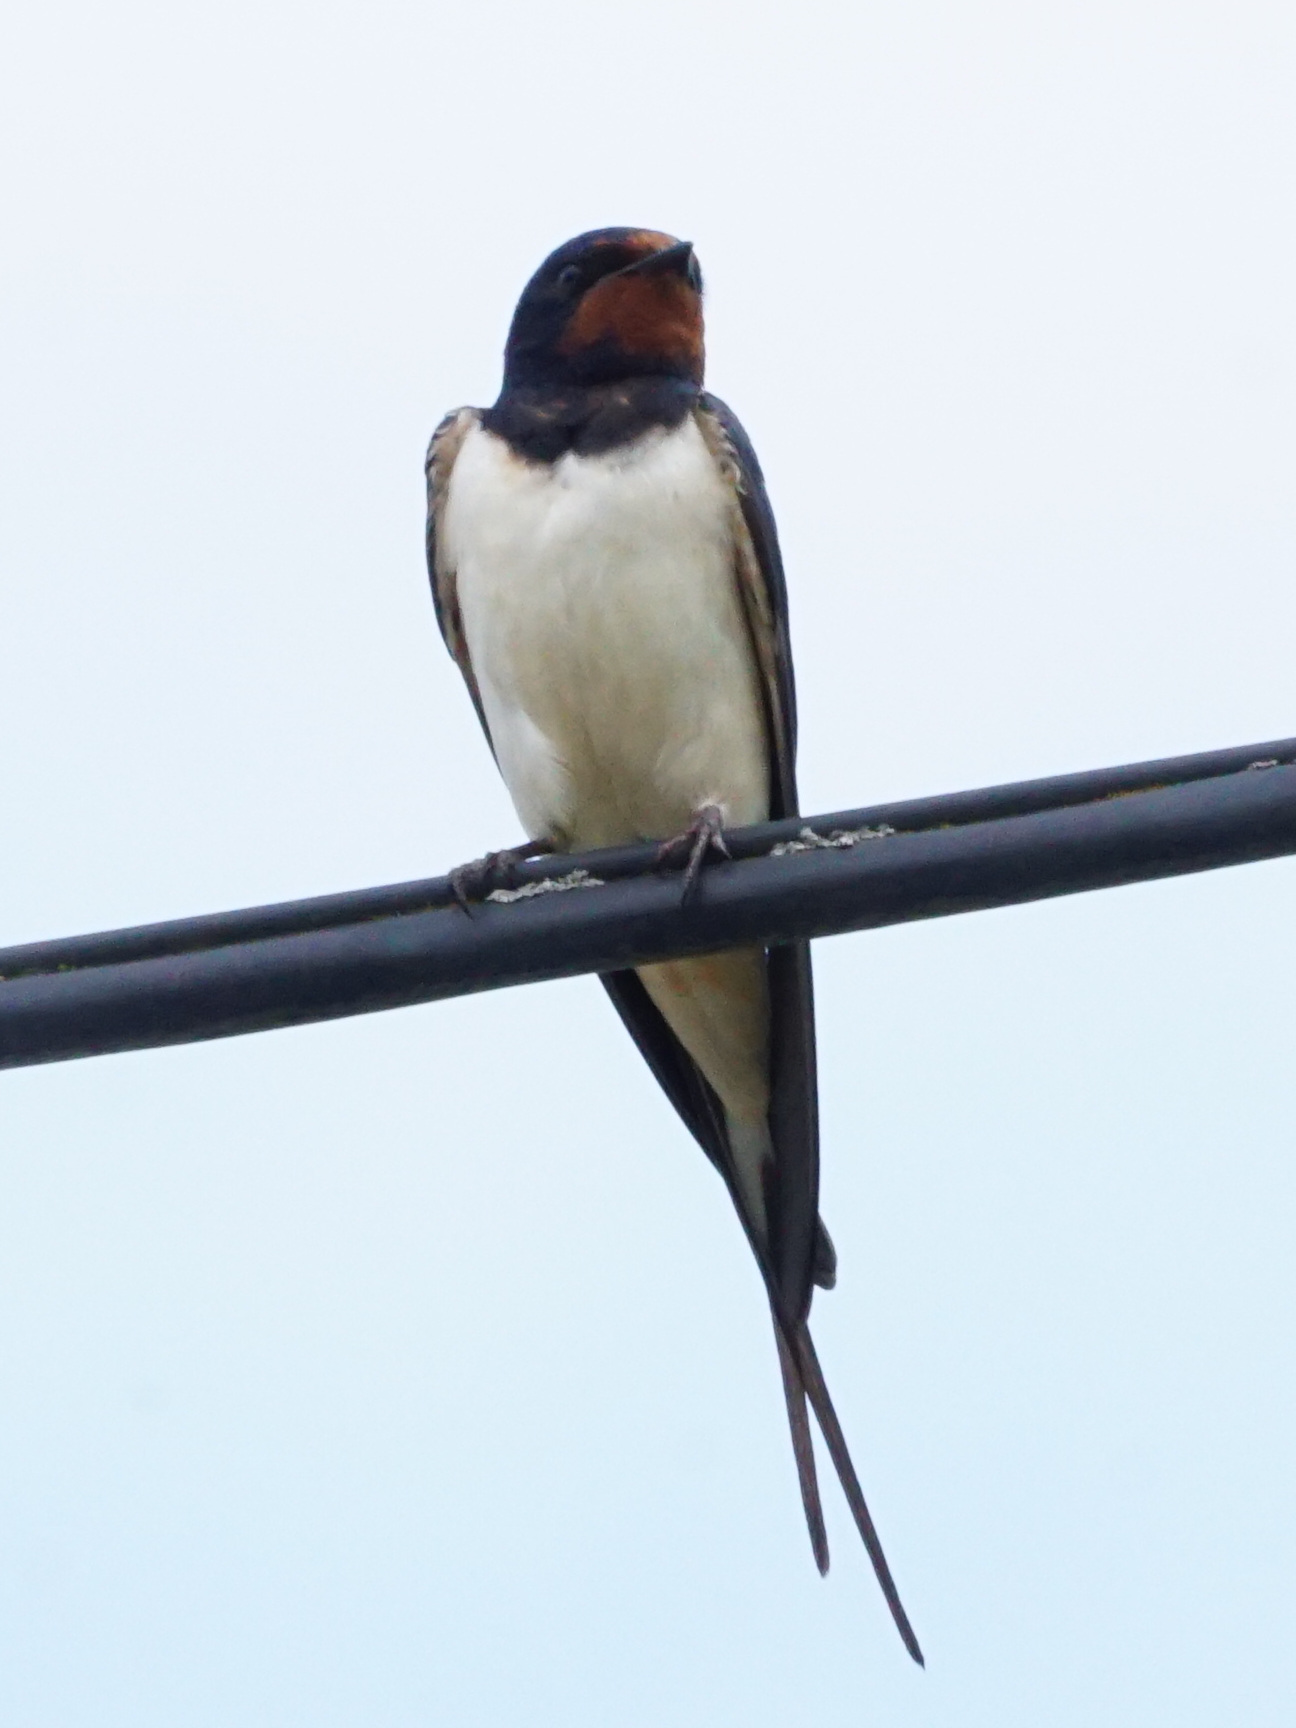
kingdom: Animalia
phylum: Chordata
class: Aves
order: Passeriformes
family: Hirundinidae
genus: Hirundo
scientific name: Hirundo rustica
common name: Barn swallow
